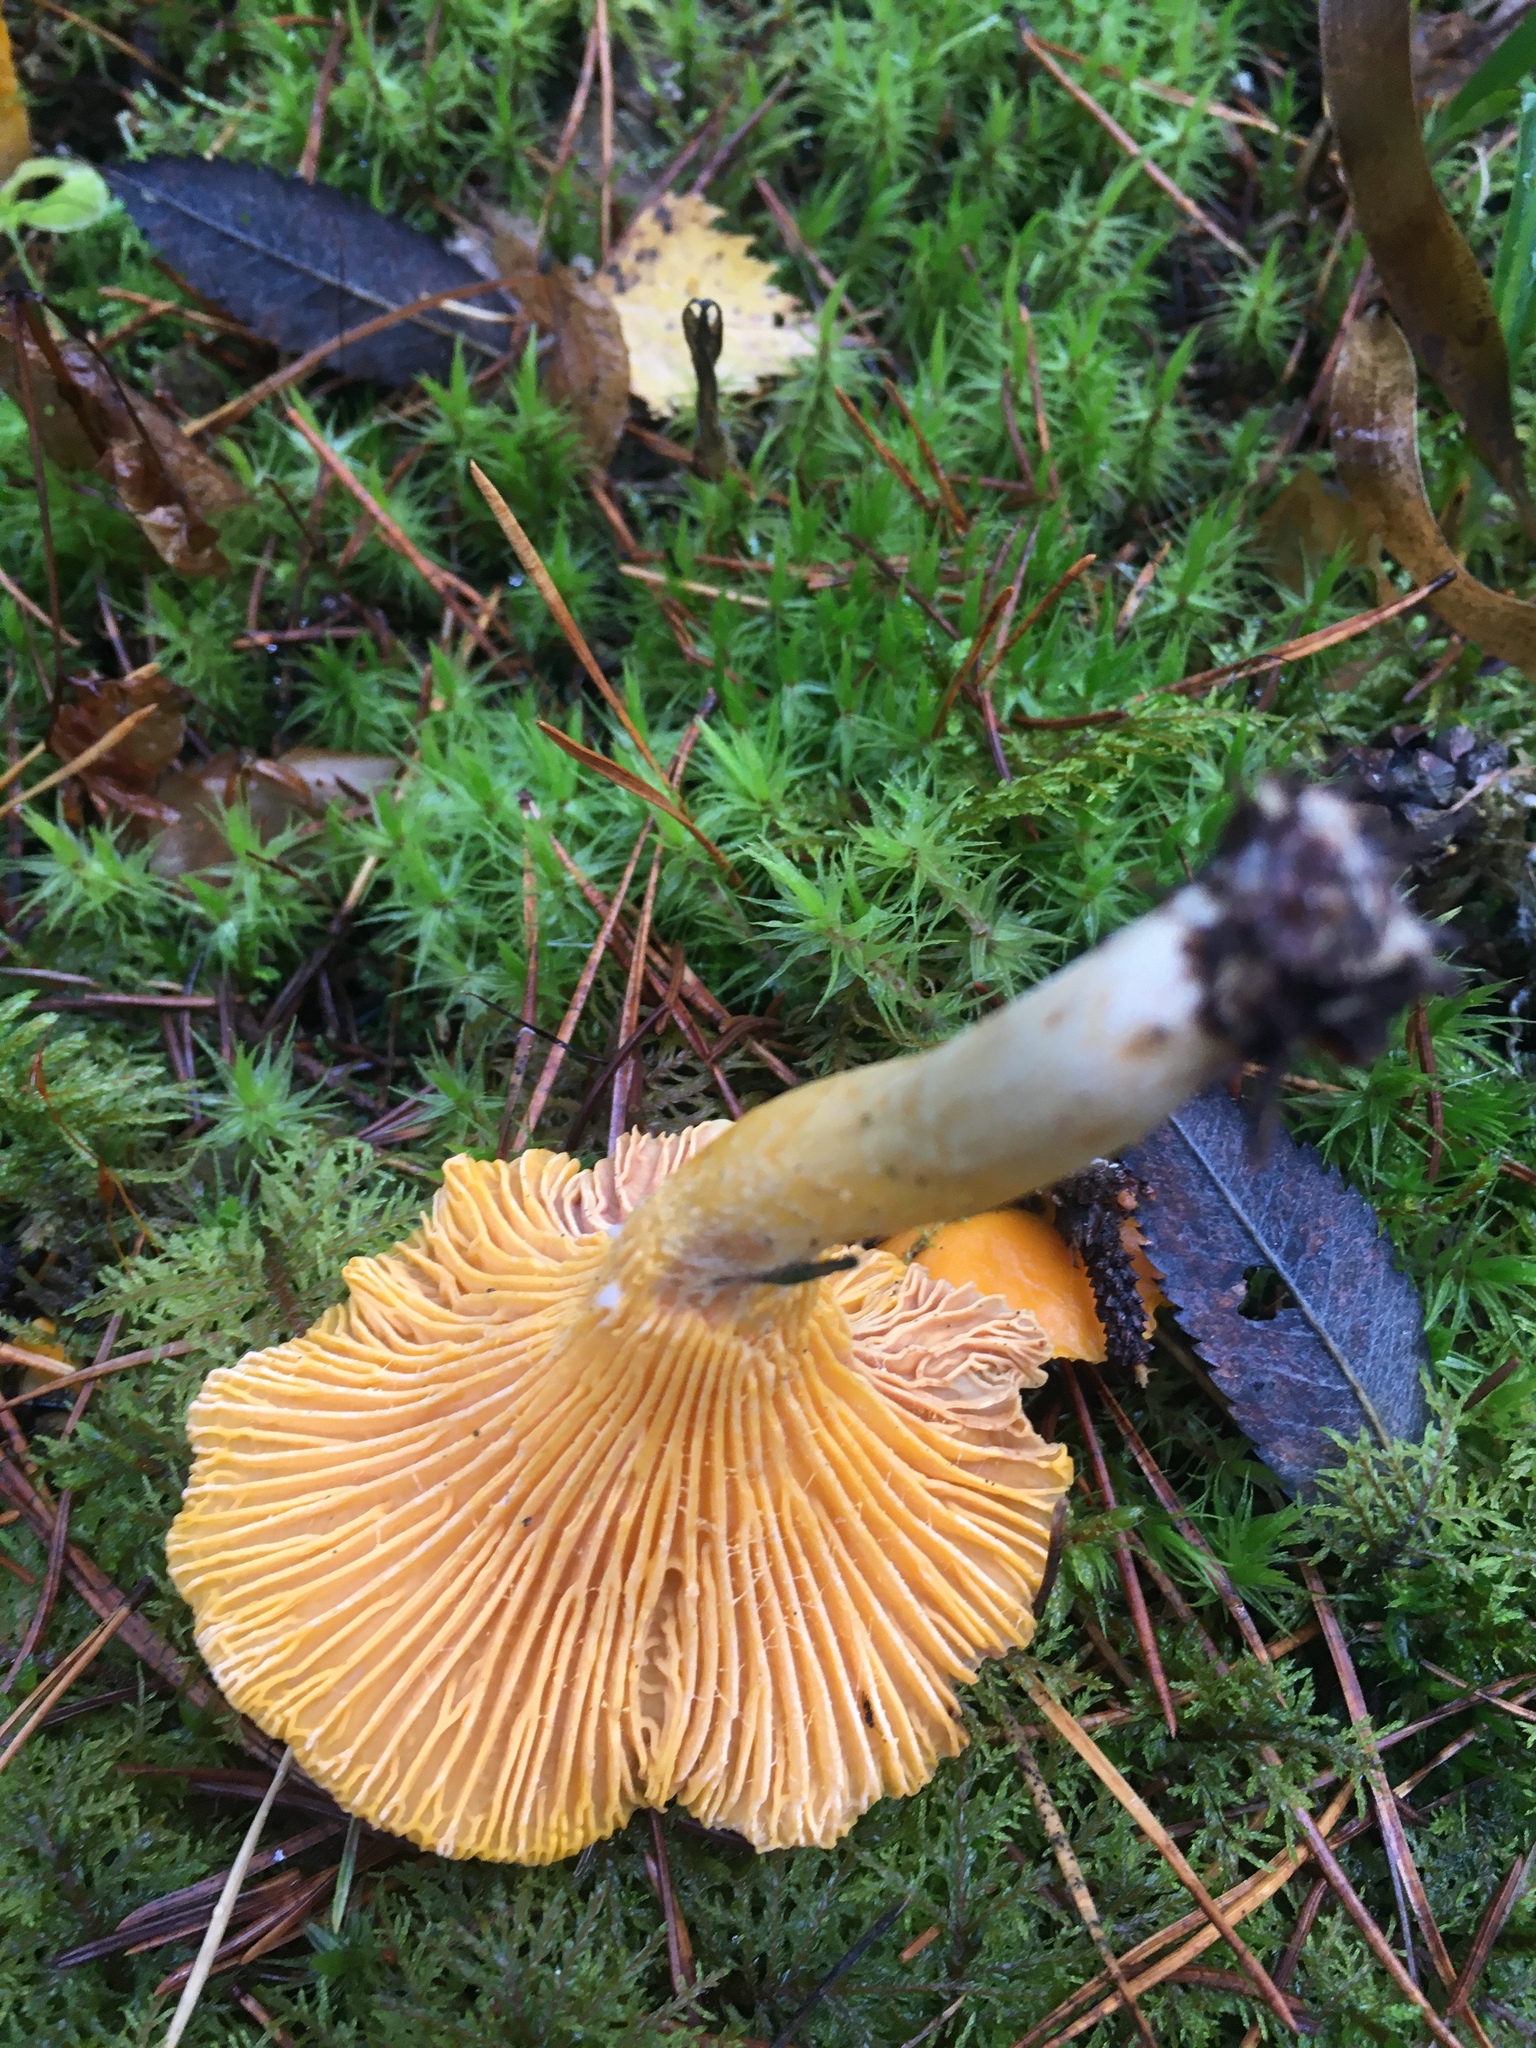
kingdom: Fungi
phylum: Basidiomycota
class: Agaricomycetes
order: Cantharellales
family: Hydnaceae
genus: Cantharellus
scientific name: Cantharellus cibarius
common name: Chanterelle
